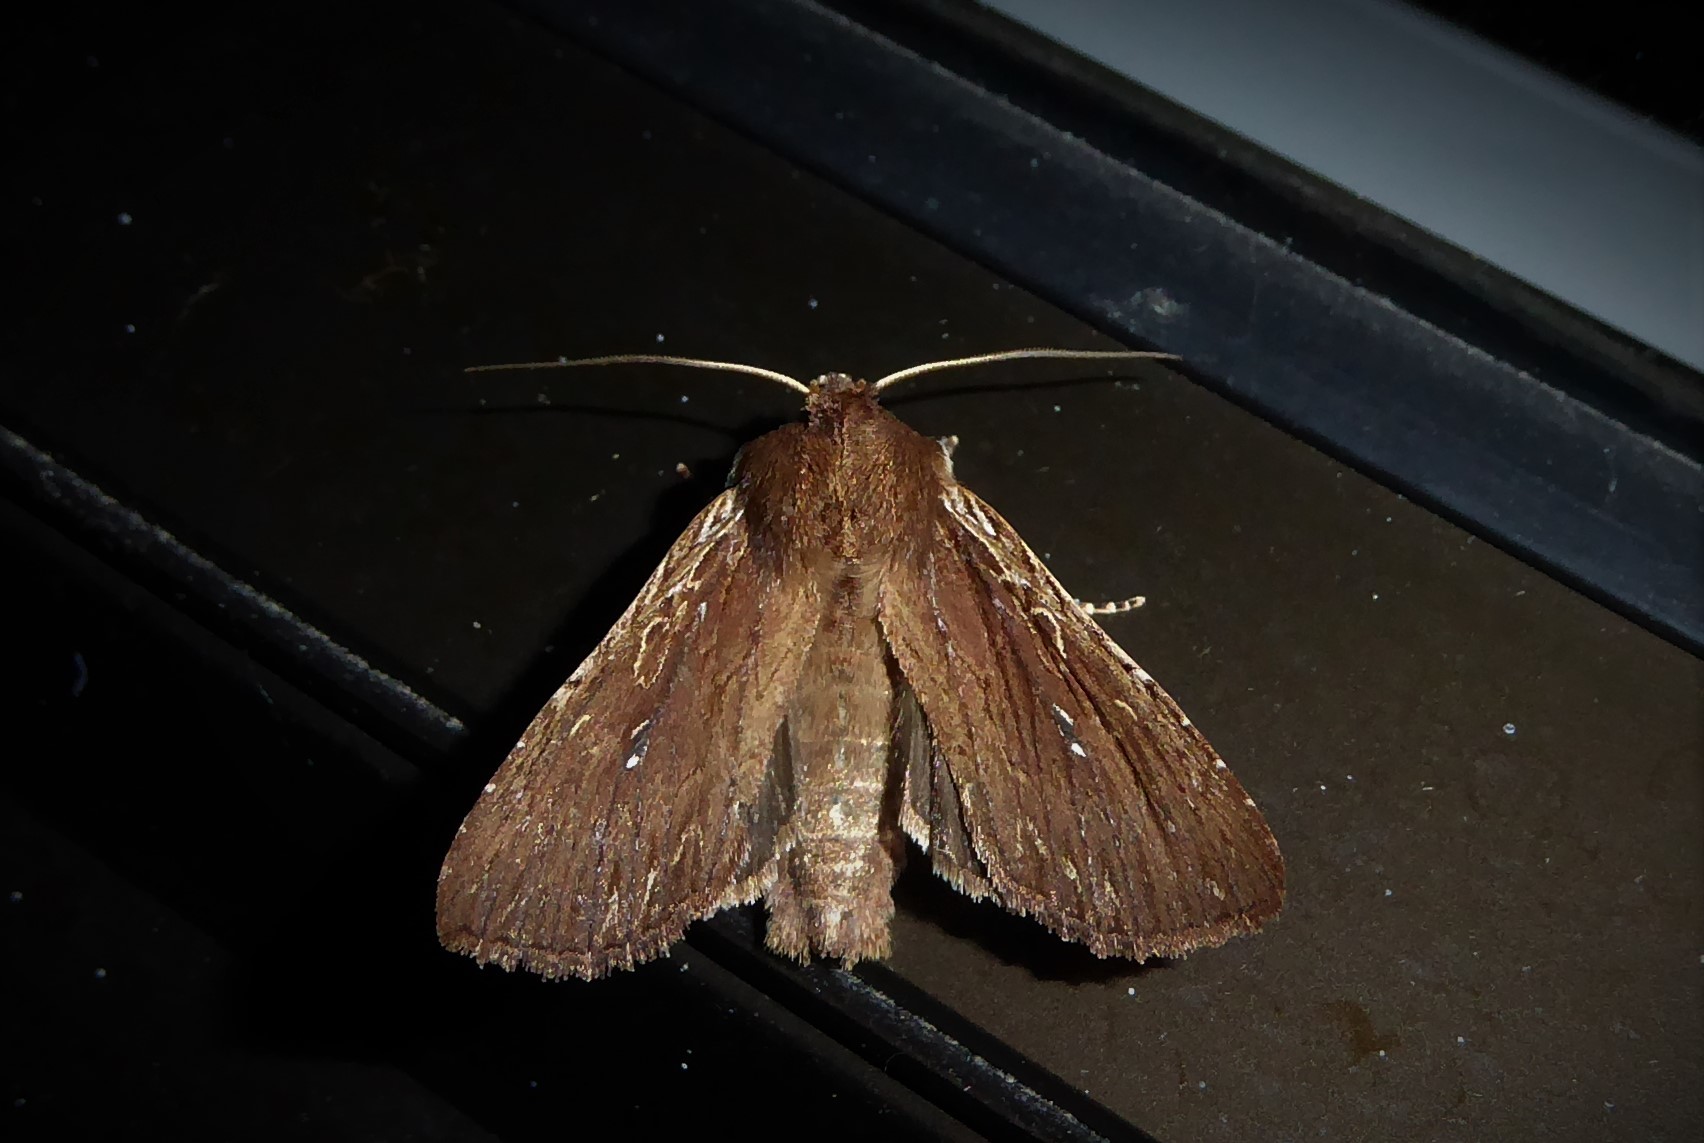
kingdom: Animalia
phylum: Arthropoda
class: Insecta
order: Lepidoptera
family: Noctuidae
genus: Ichneutica
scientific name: Ichneutica
